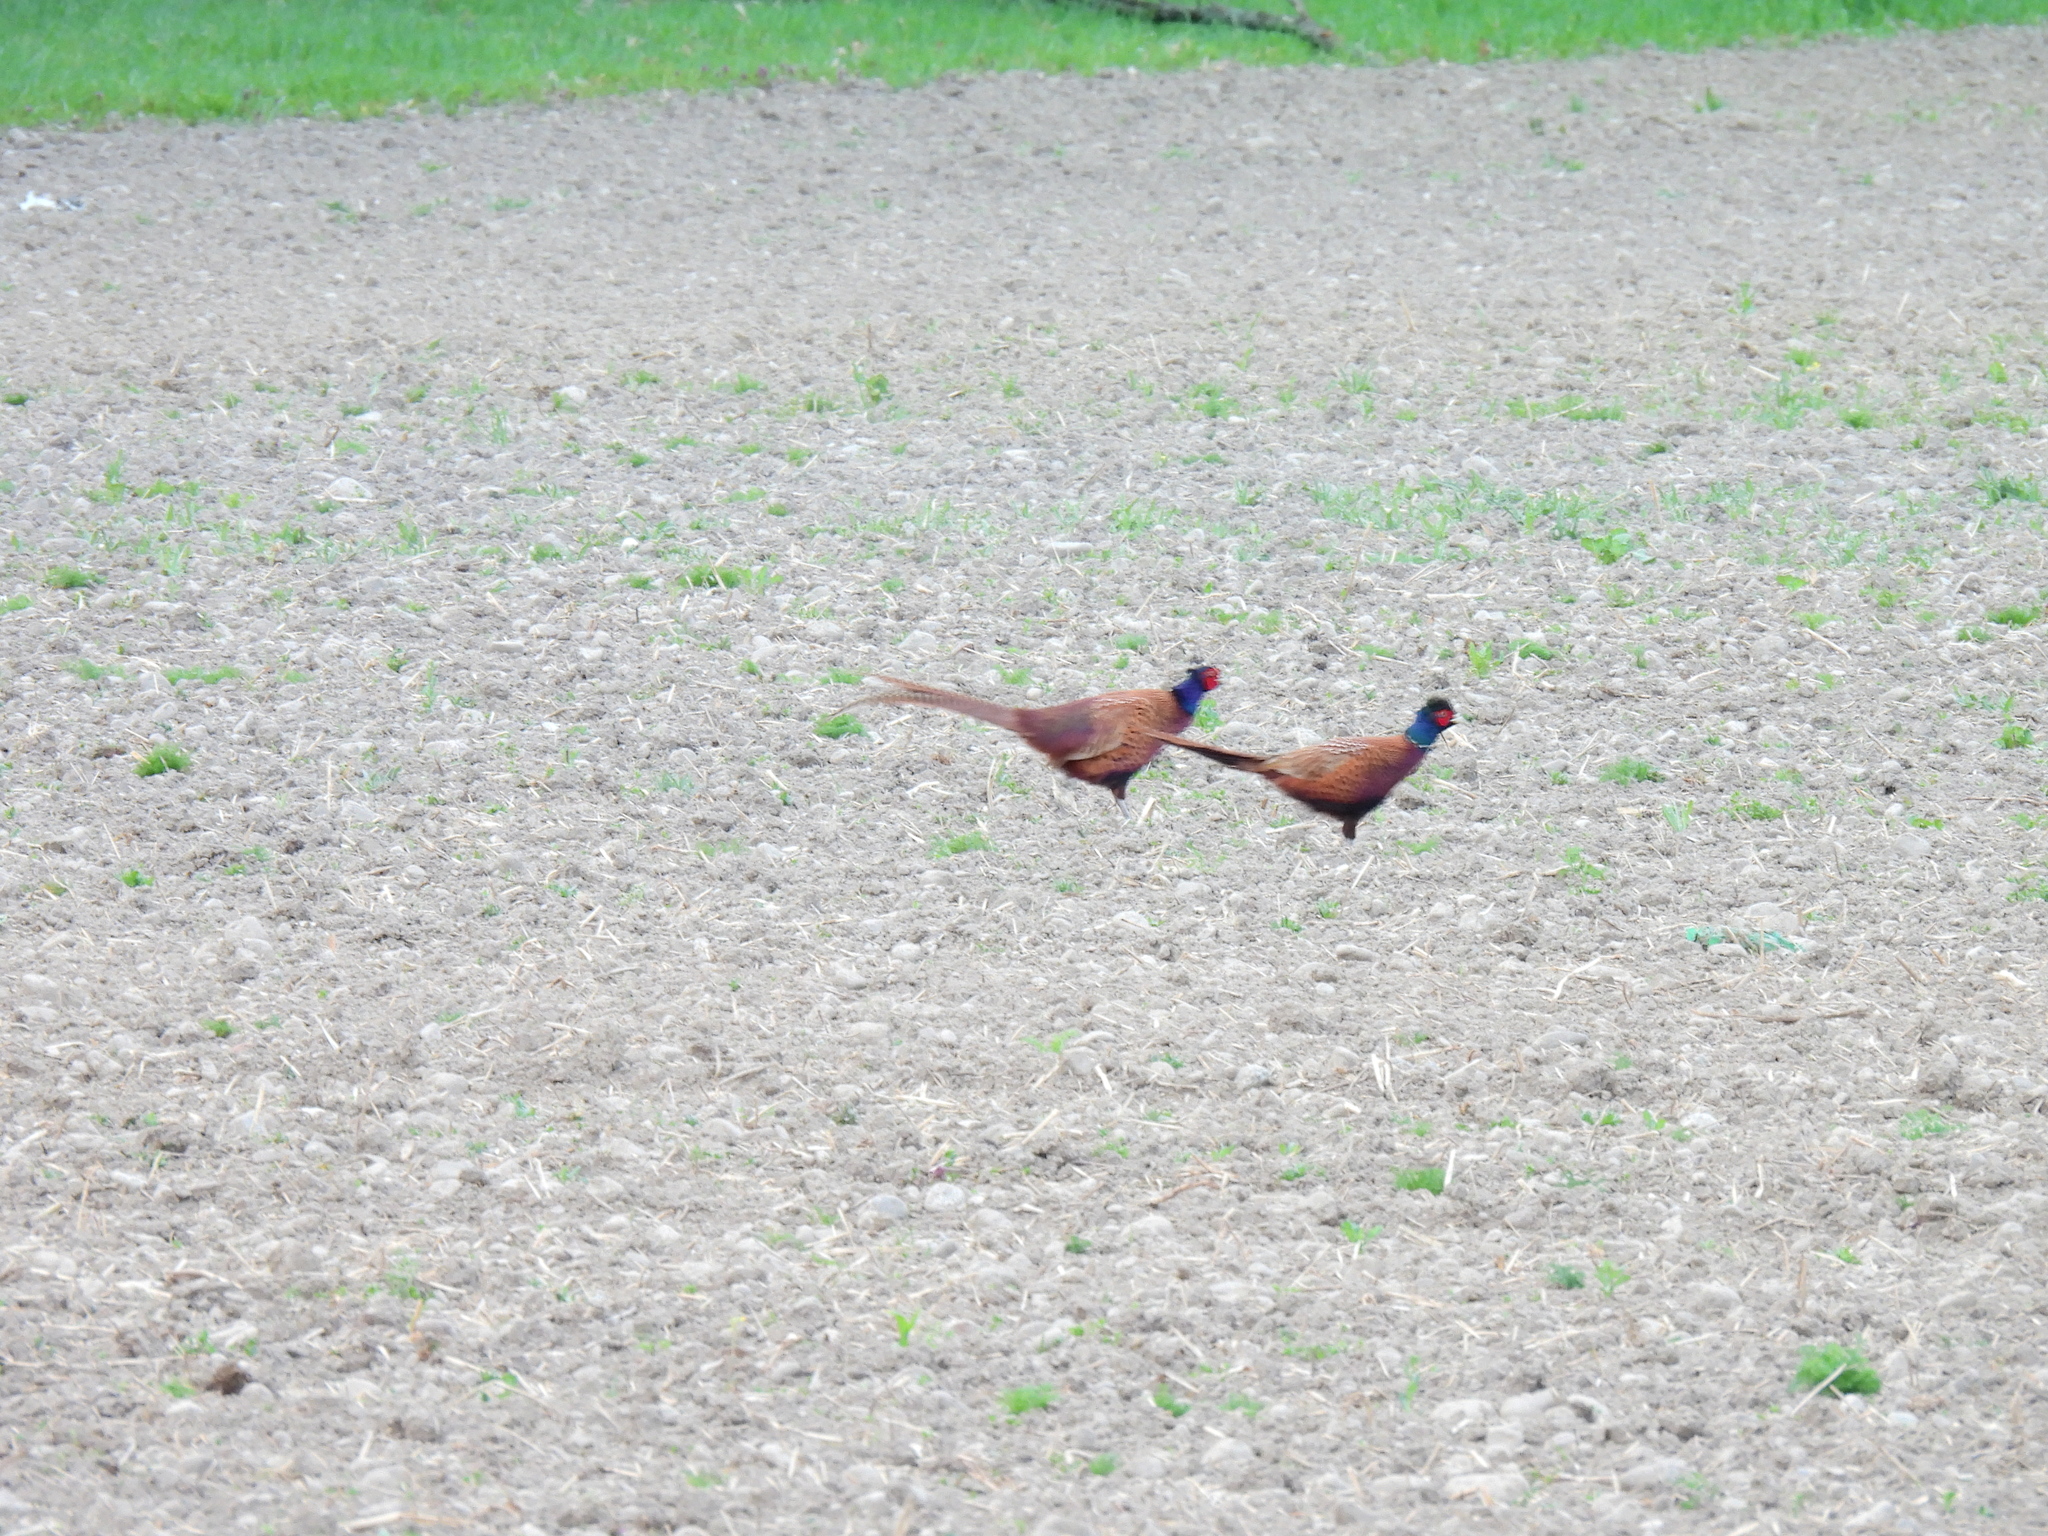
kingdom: Animalia
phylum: Chordata
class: Aves
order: Galliformes
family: Phasianidae
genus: Phasianus
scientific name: Phasianus colchicus
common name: Common pheasant
